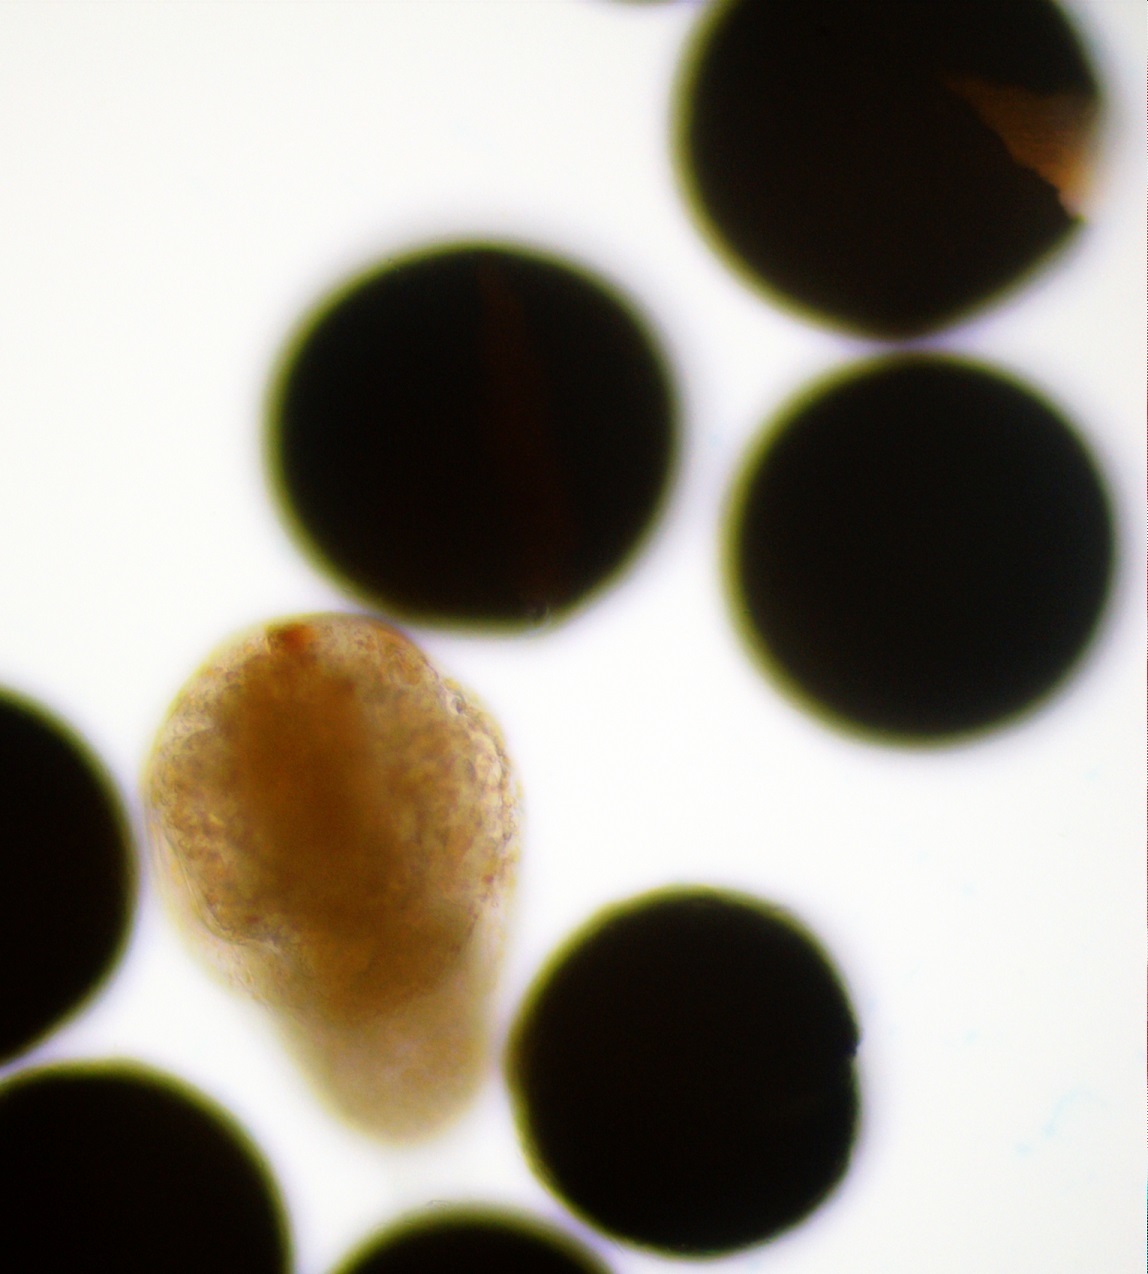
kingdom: Animalia
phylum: Arthropoda
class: Branchiopoda
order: Anostraca
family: Artemiidae
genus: Artemia
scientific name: Artemia monica
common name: Mono lake brine shrimp
